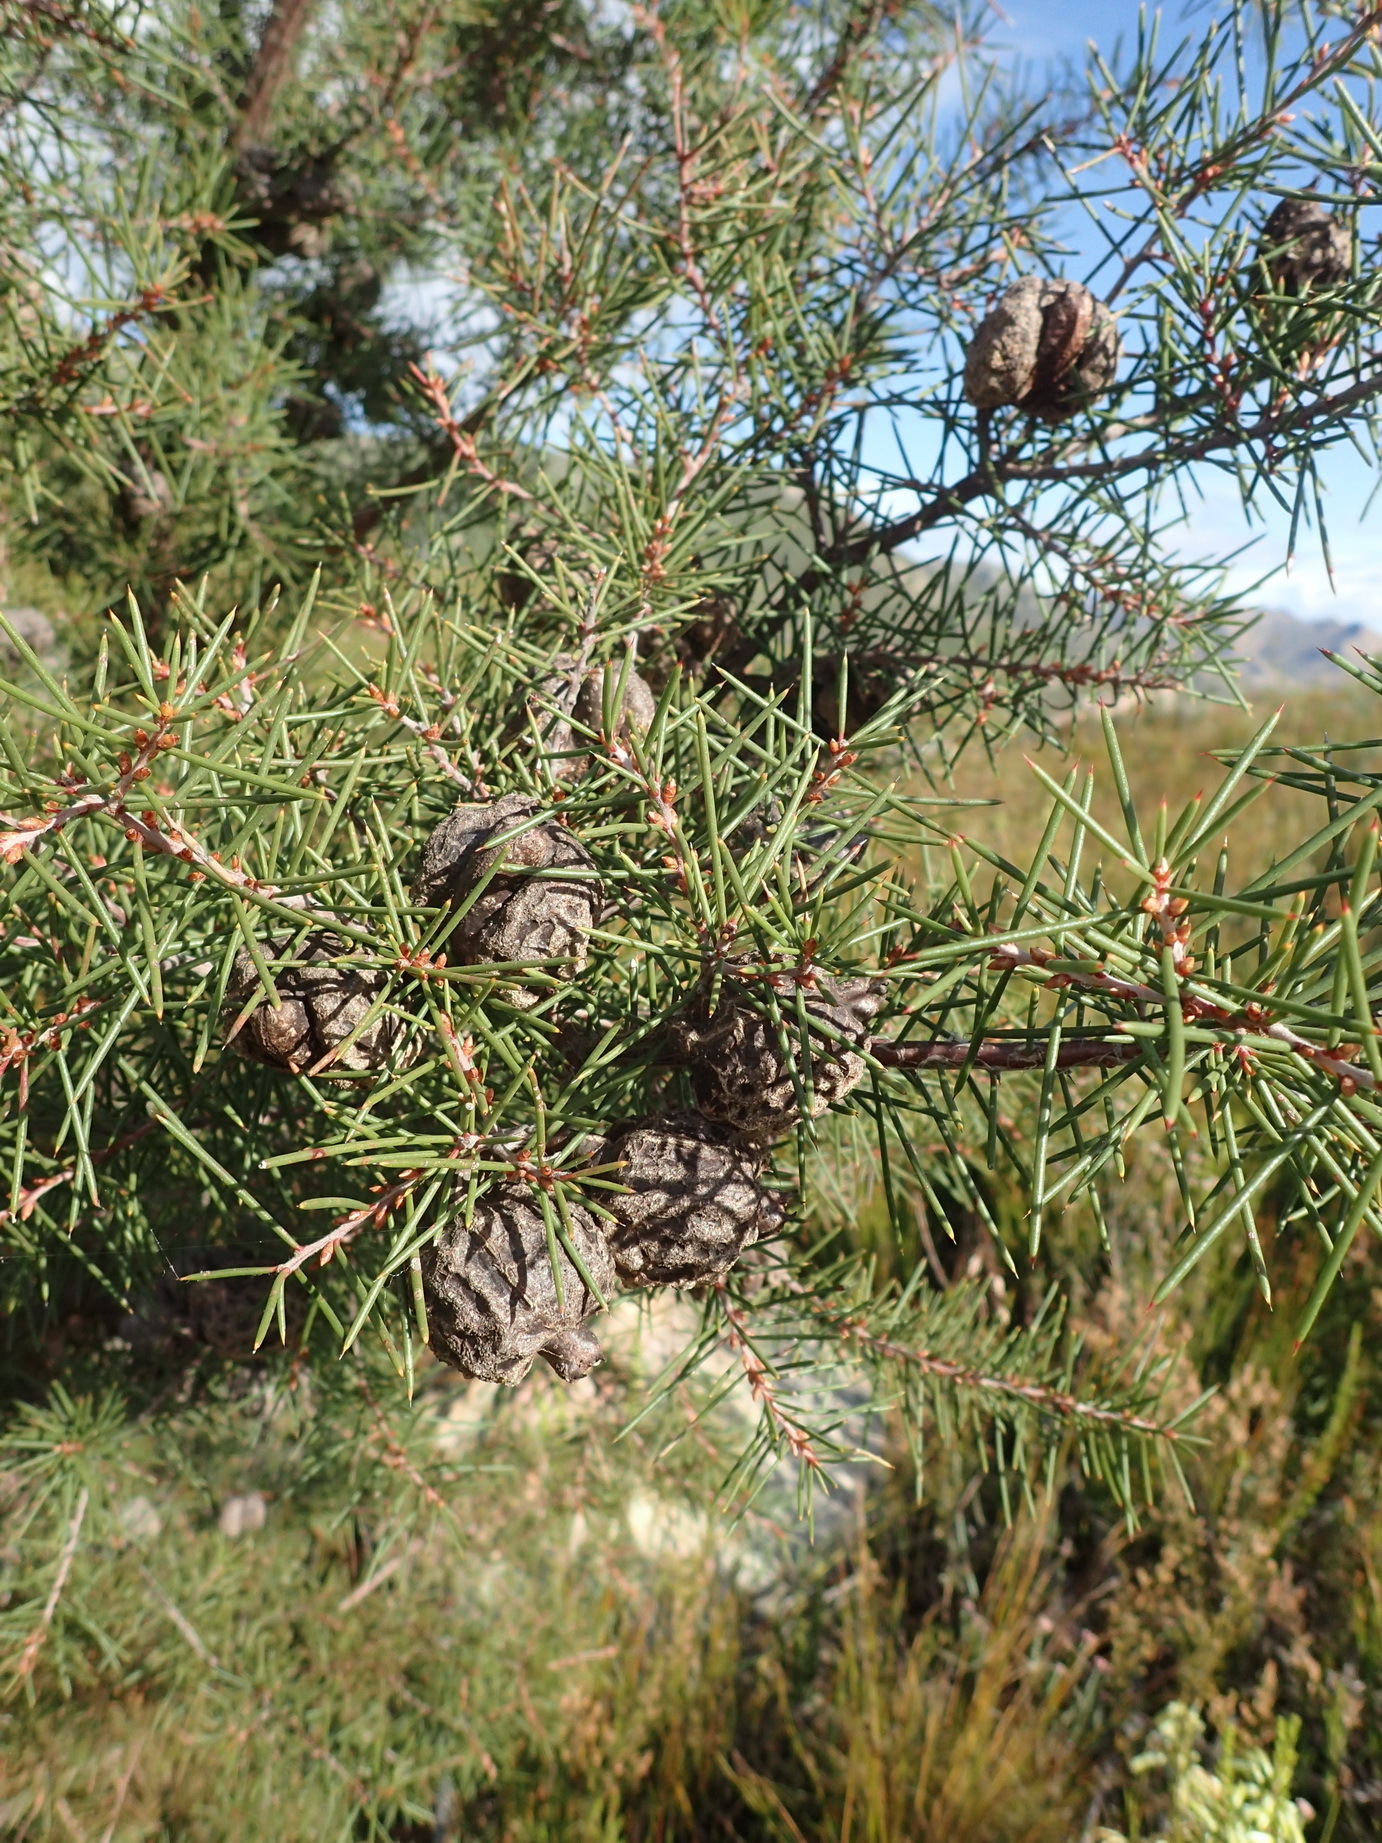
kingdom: Plantae
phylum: Tracheophyta
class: Magnoliopsida
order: Proteales
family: Proteaceae
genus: Hakea
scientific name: Hakea sericea
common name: Needle bush
